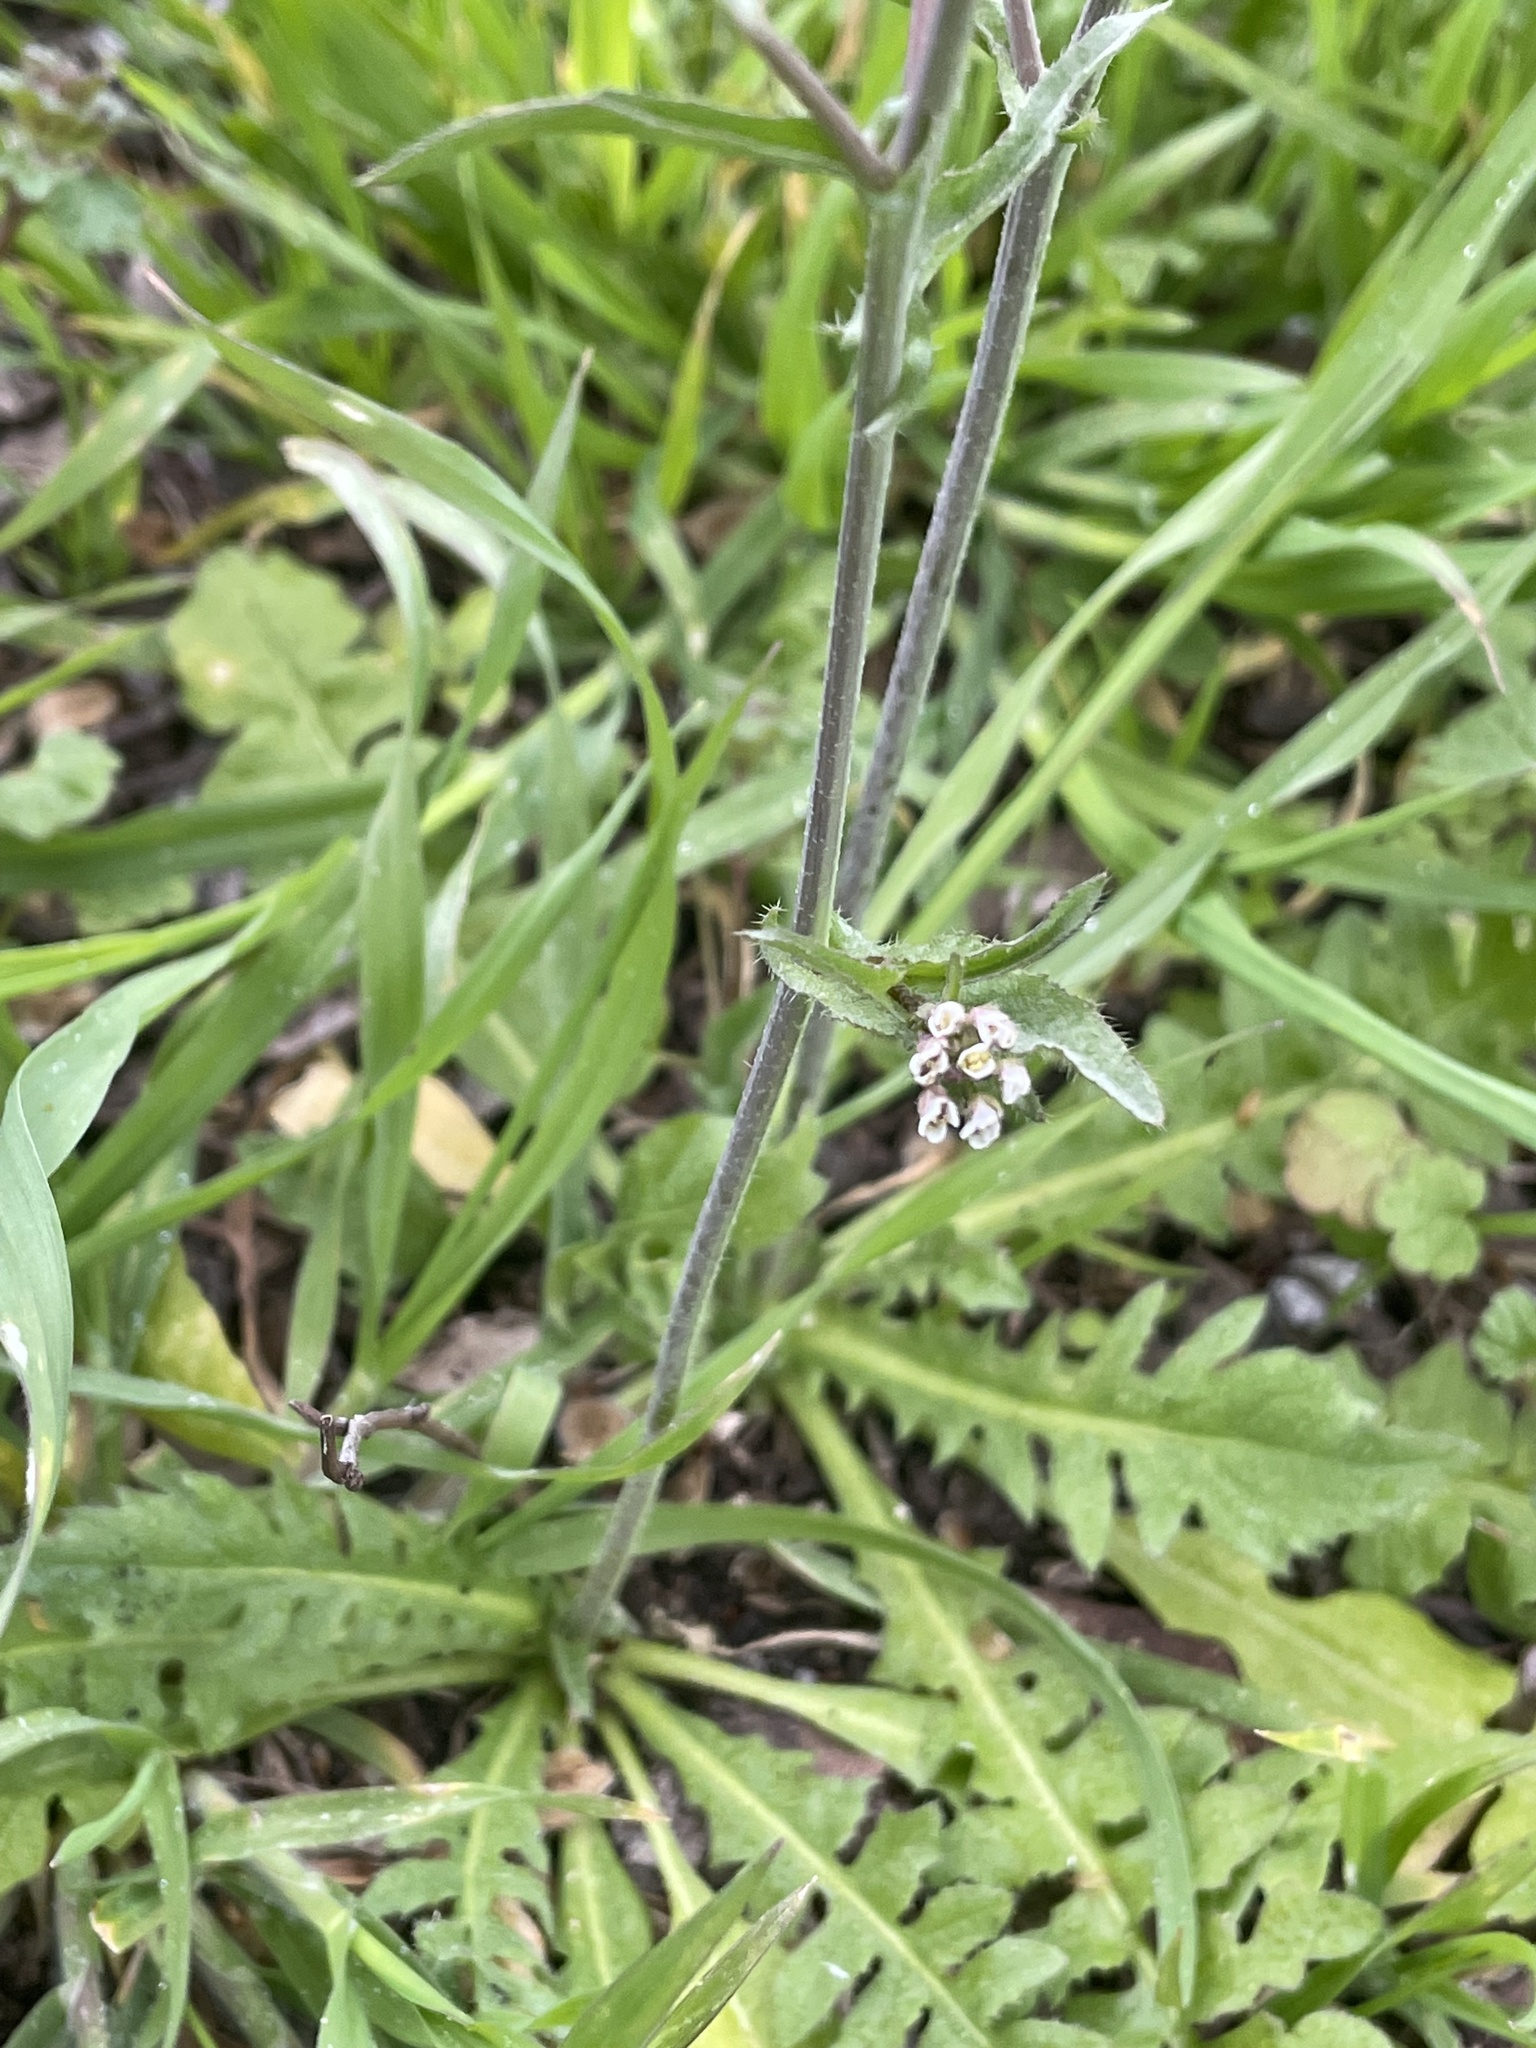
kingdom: Plantae
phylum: Tracheophyta
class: Magnoliopsida
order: Brassicales
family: Brassicaceae
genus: Capsella
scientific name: Capsella bursa-pastoris
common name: Shepherd's purse
